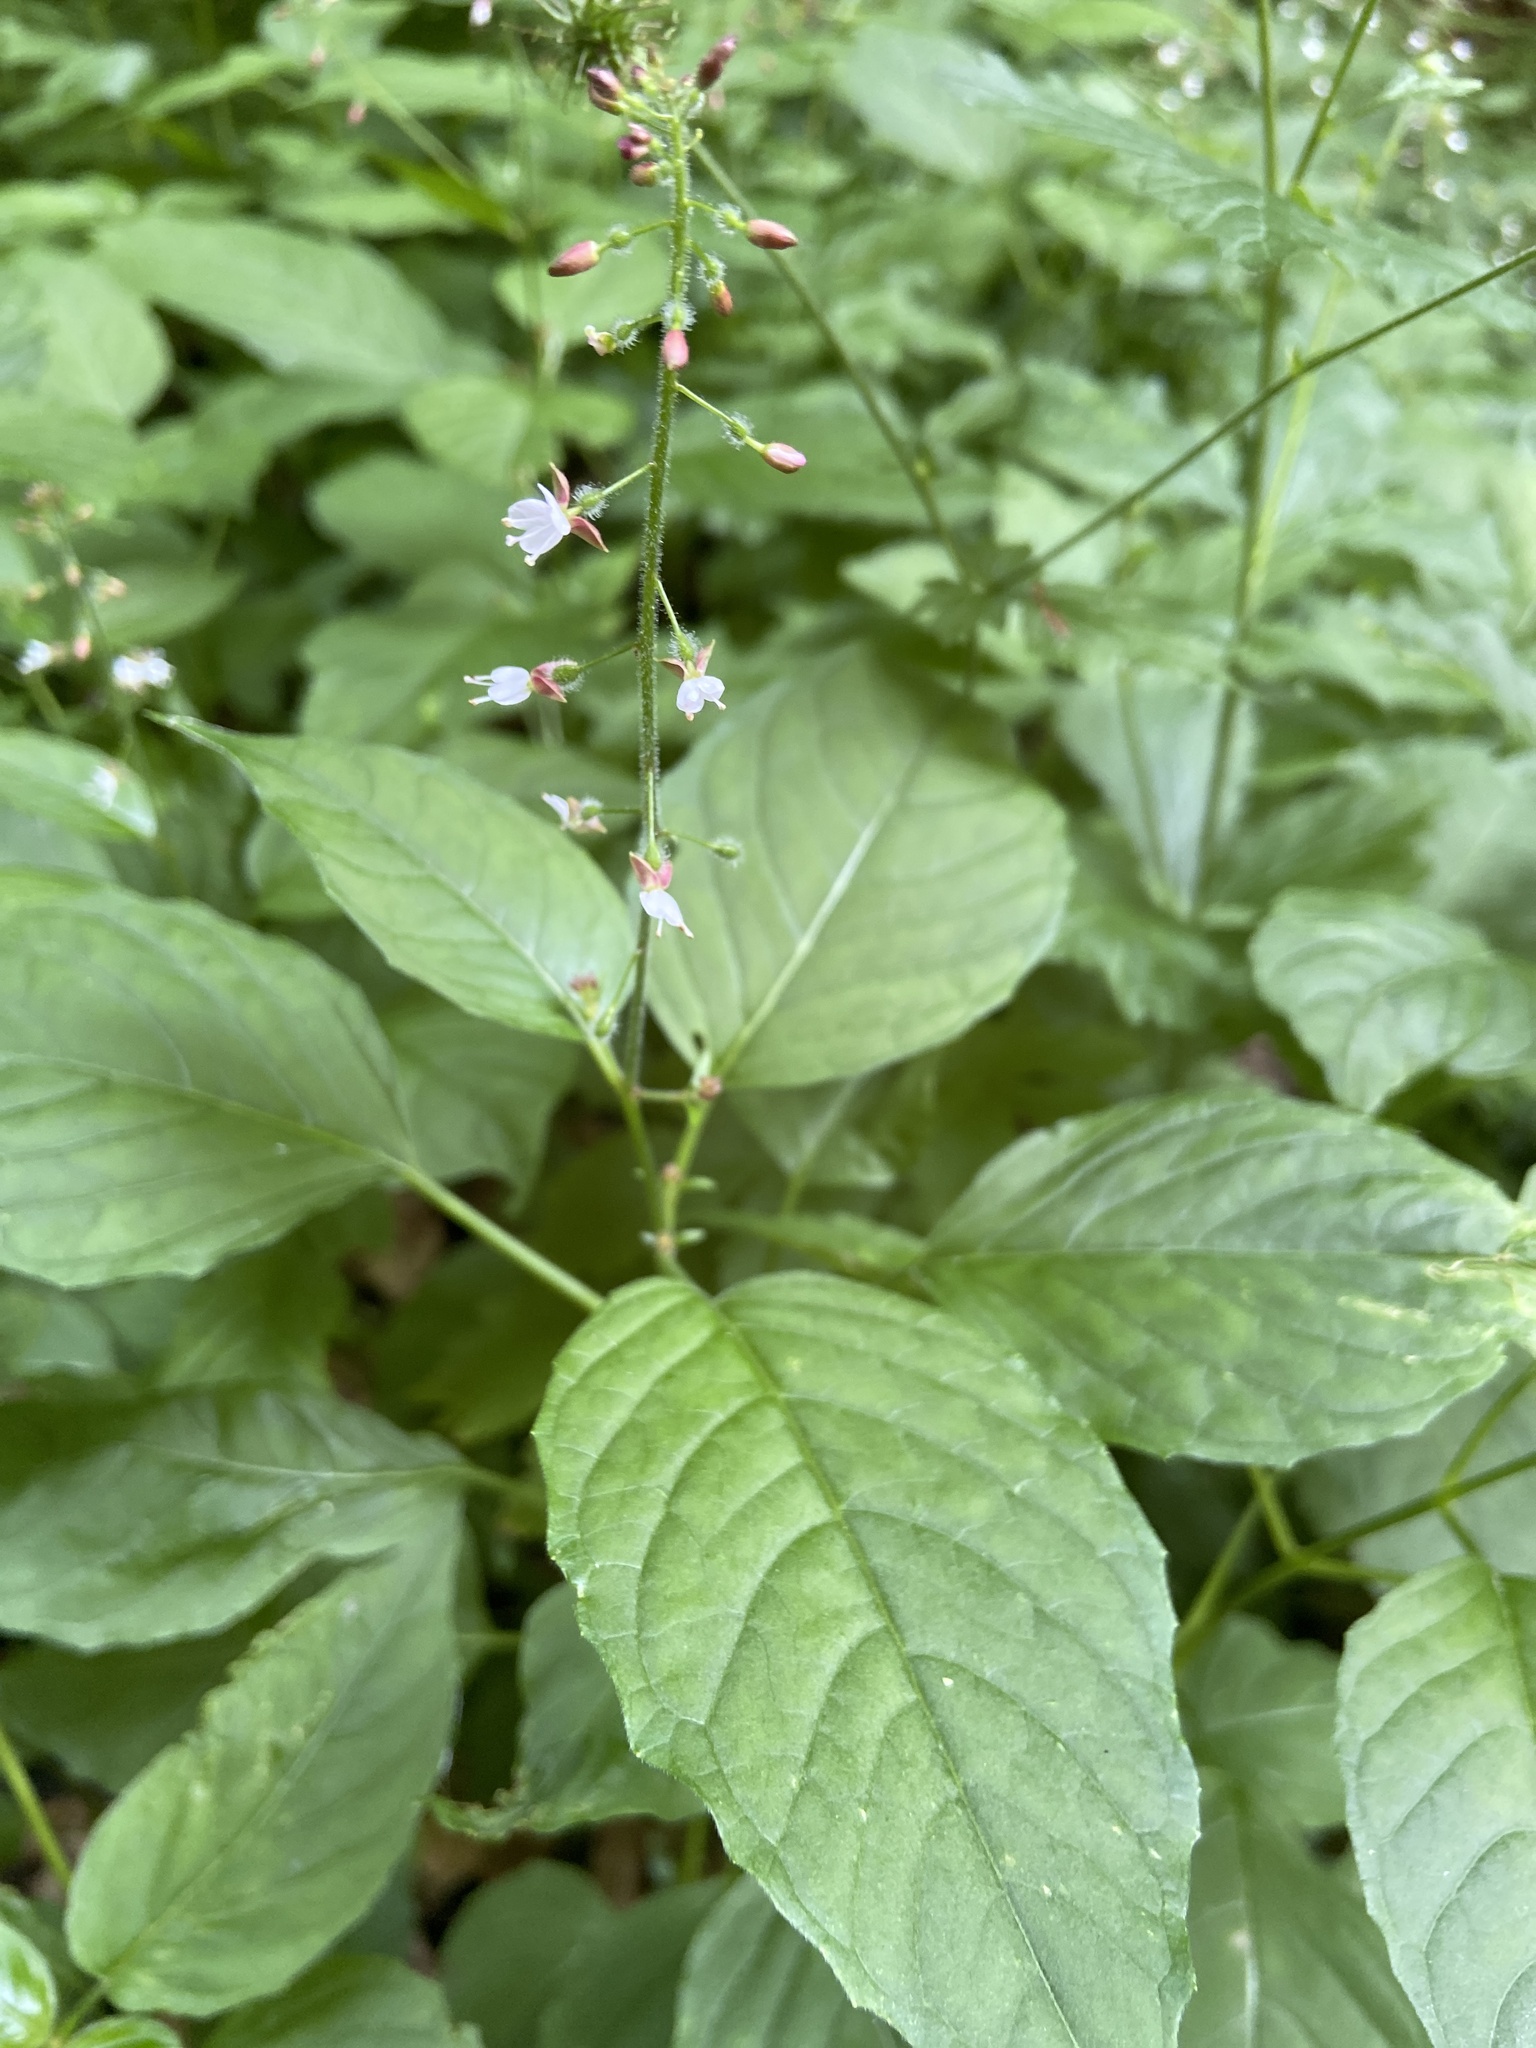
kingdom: Plantae
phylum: Tracheophyta
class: Magnoliopsida
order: Myrtales
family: Onagraceae
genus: Circaea
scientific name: Circaea lutetiana
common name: Enchanter's-nightshade
